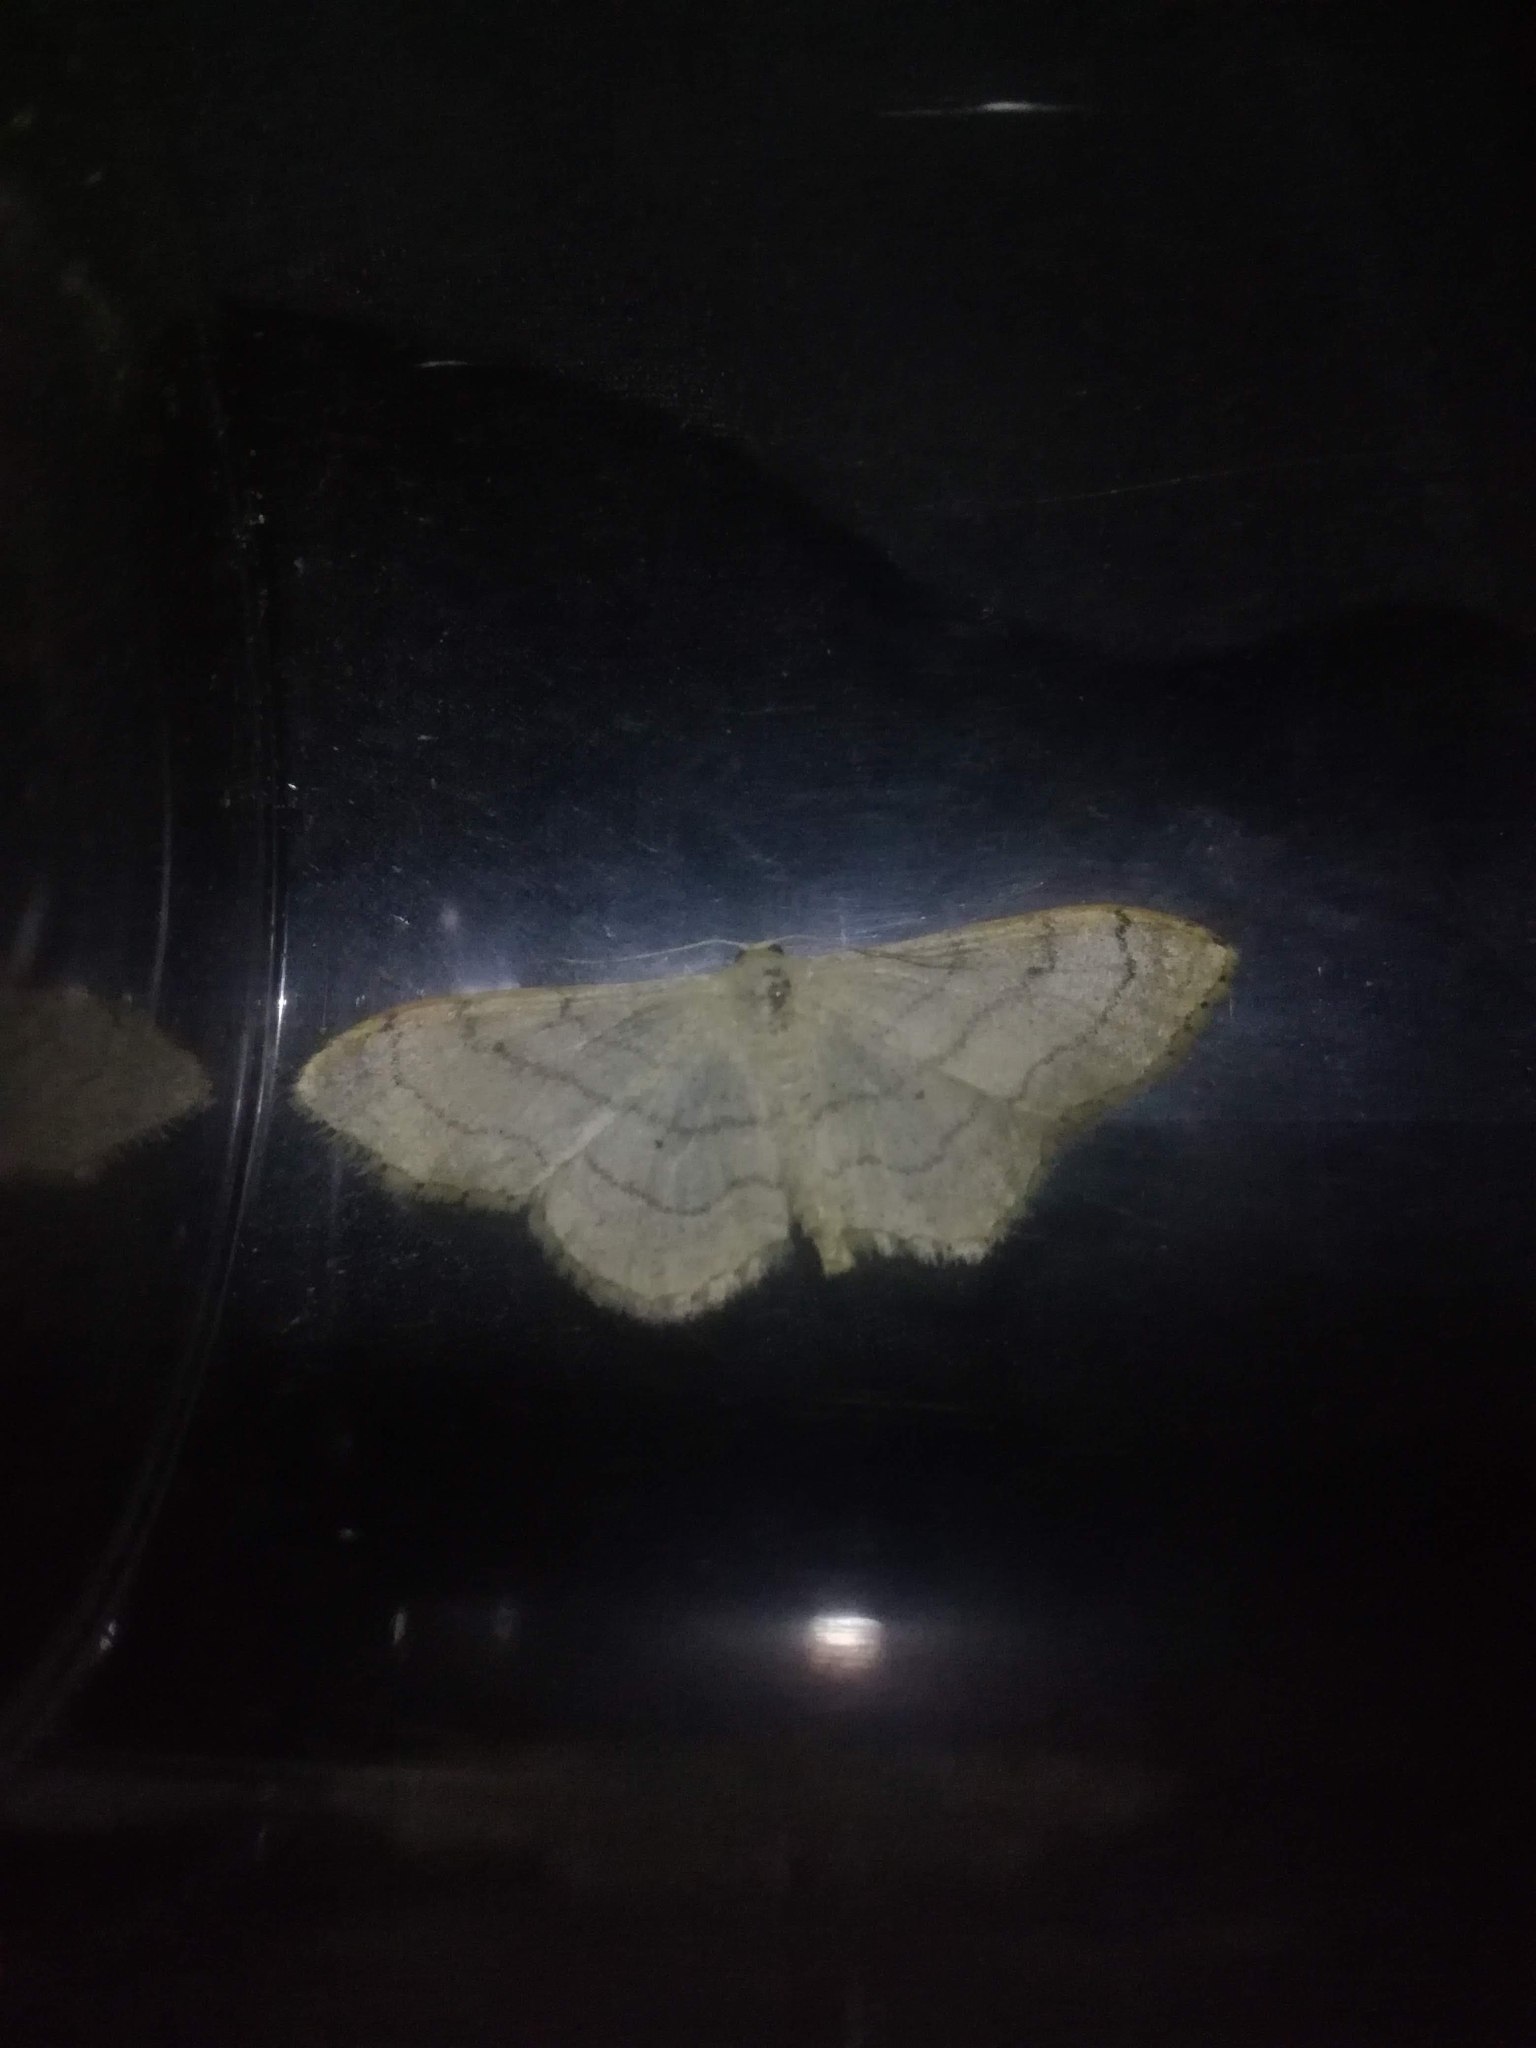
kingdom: Animalia
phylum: Arthropoda
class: Insecta
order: Lepidoptera
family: Geometridae
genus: Idaea
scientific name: Idaea aversata
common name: Riband wave
